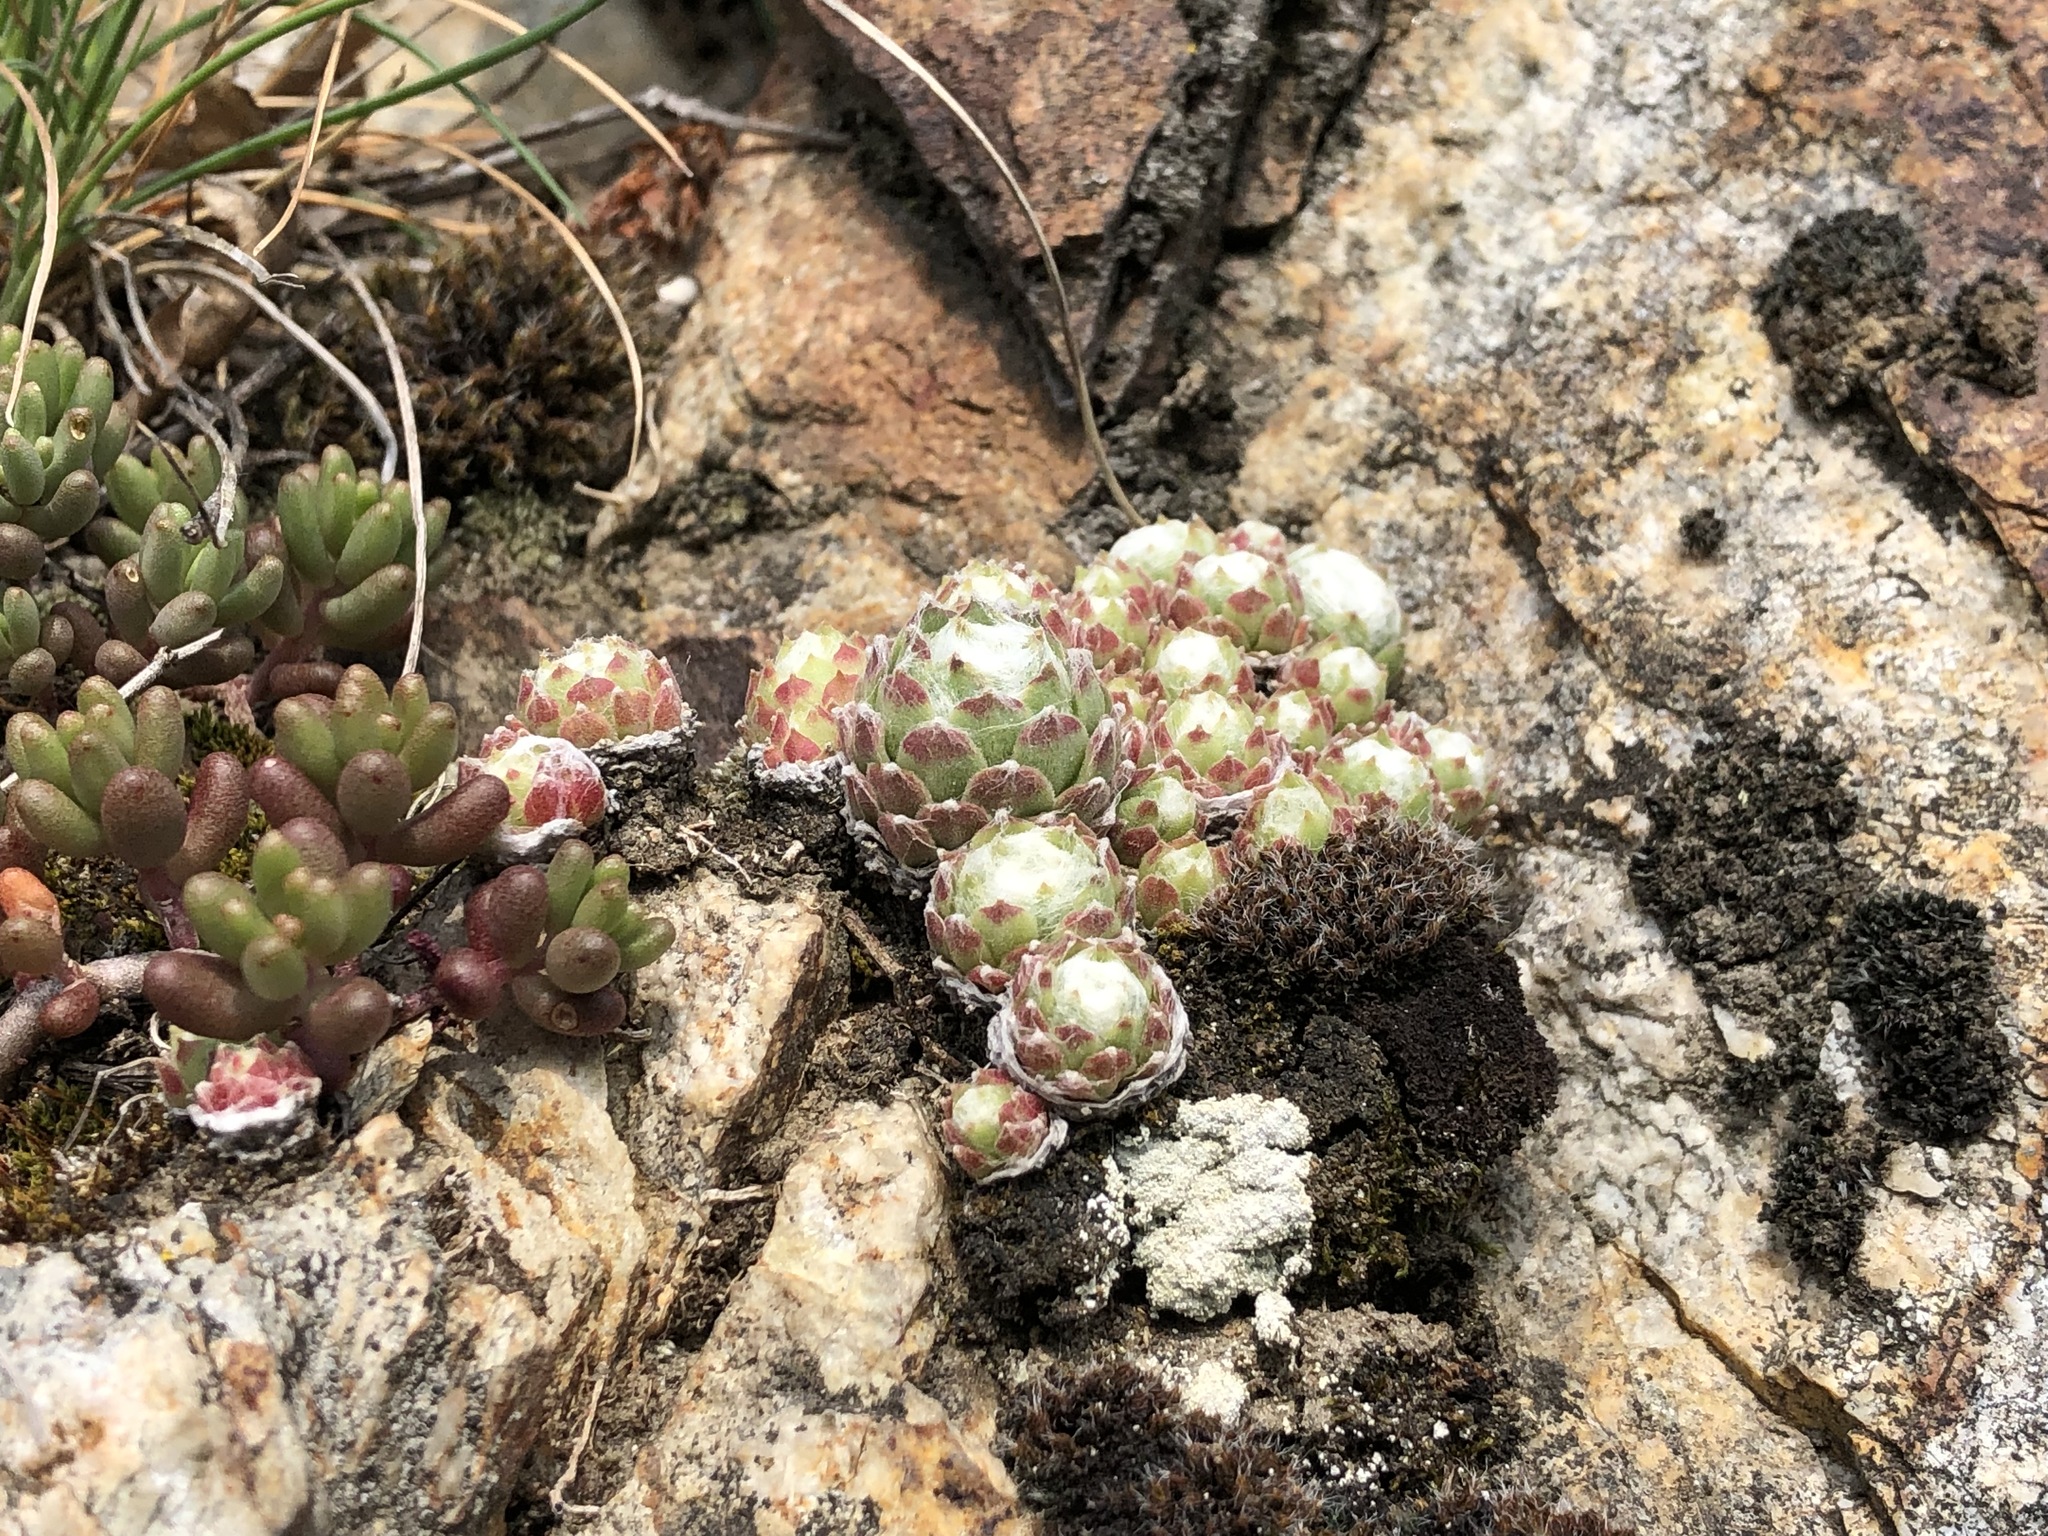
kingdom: Plantae
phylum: Tracheophyta
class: Magnoliopsida
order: Saxifragales
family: Crassulaceae
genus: Sempervivum
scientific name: Sempervivum arachnoideum
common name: Cobweb house-leek
